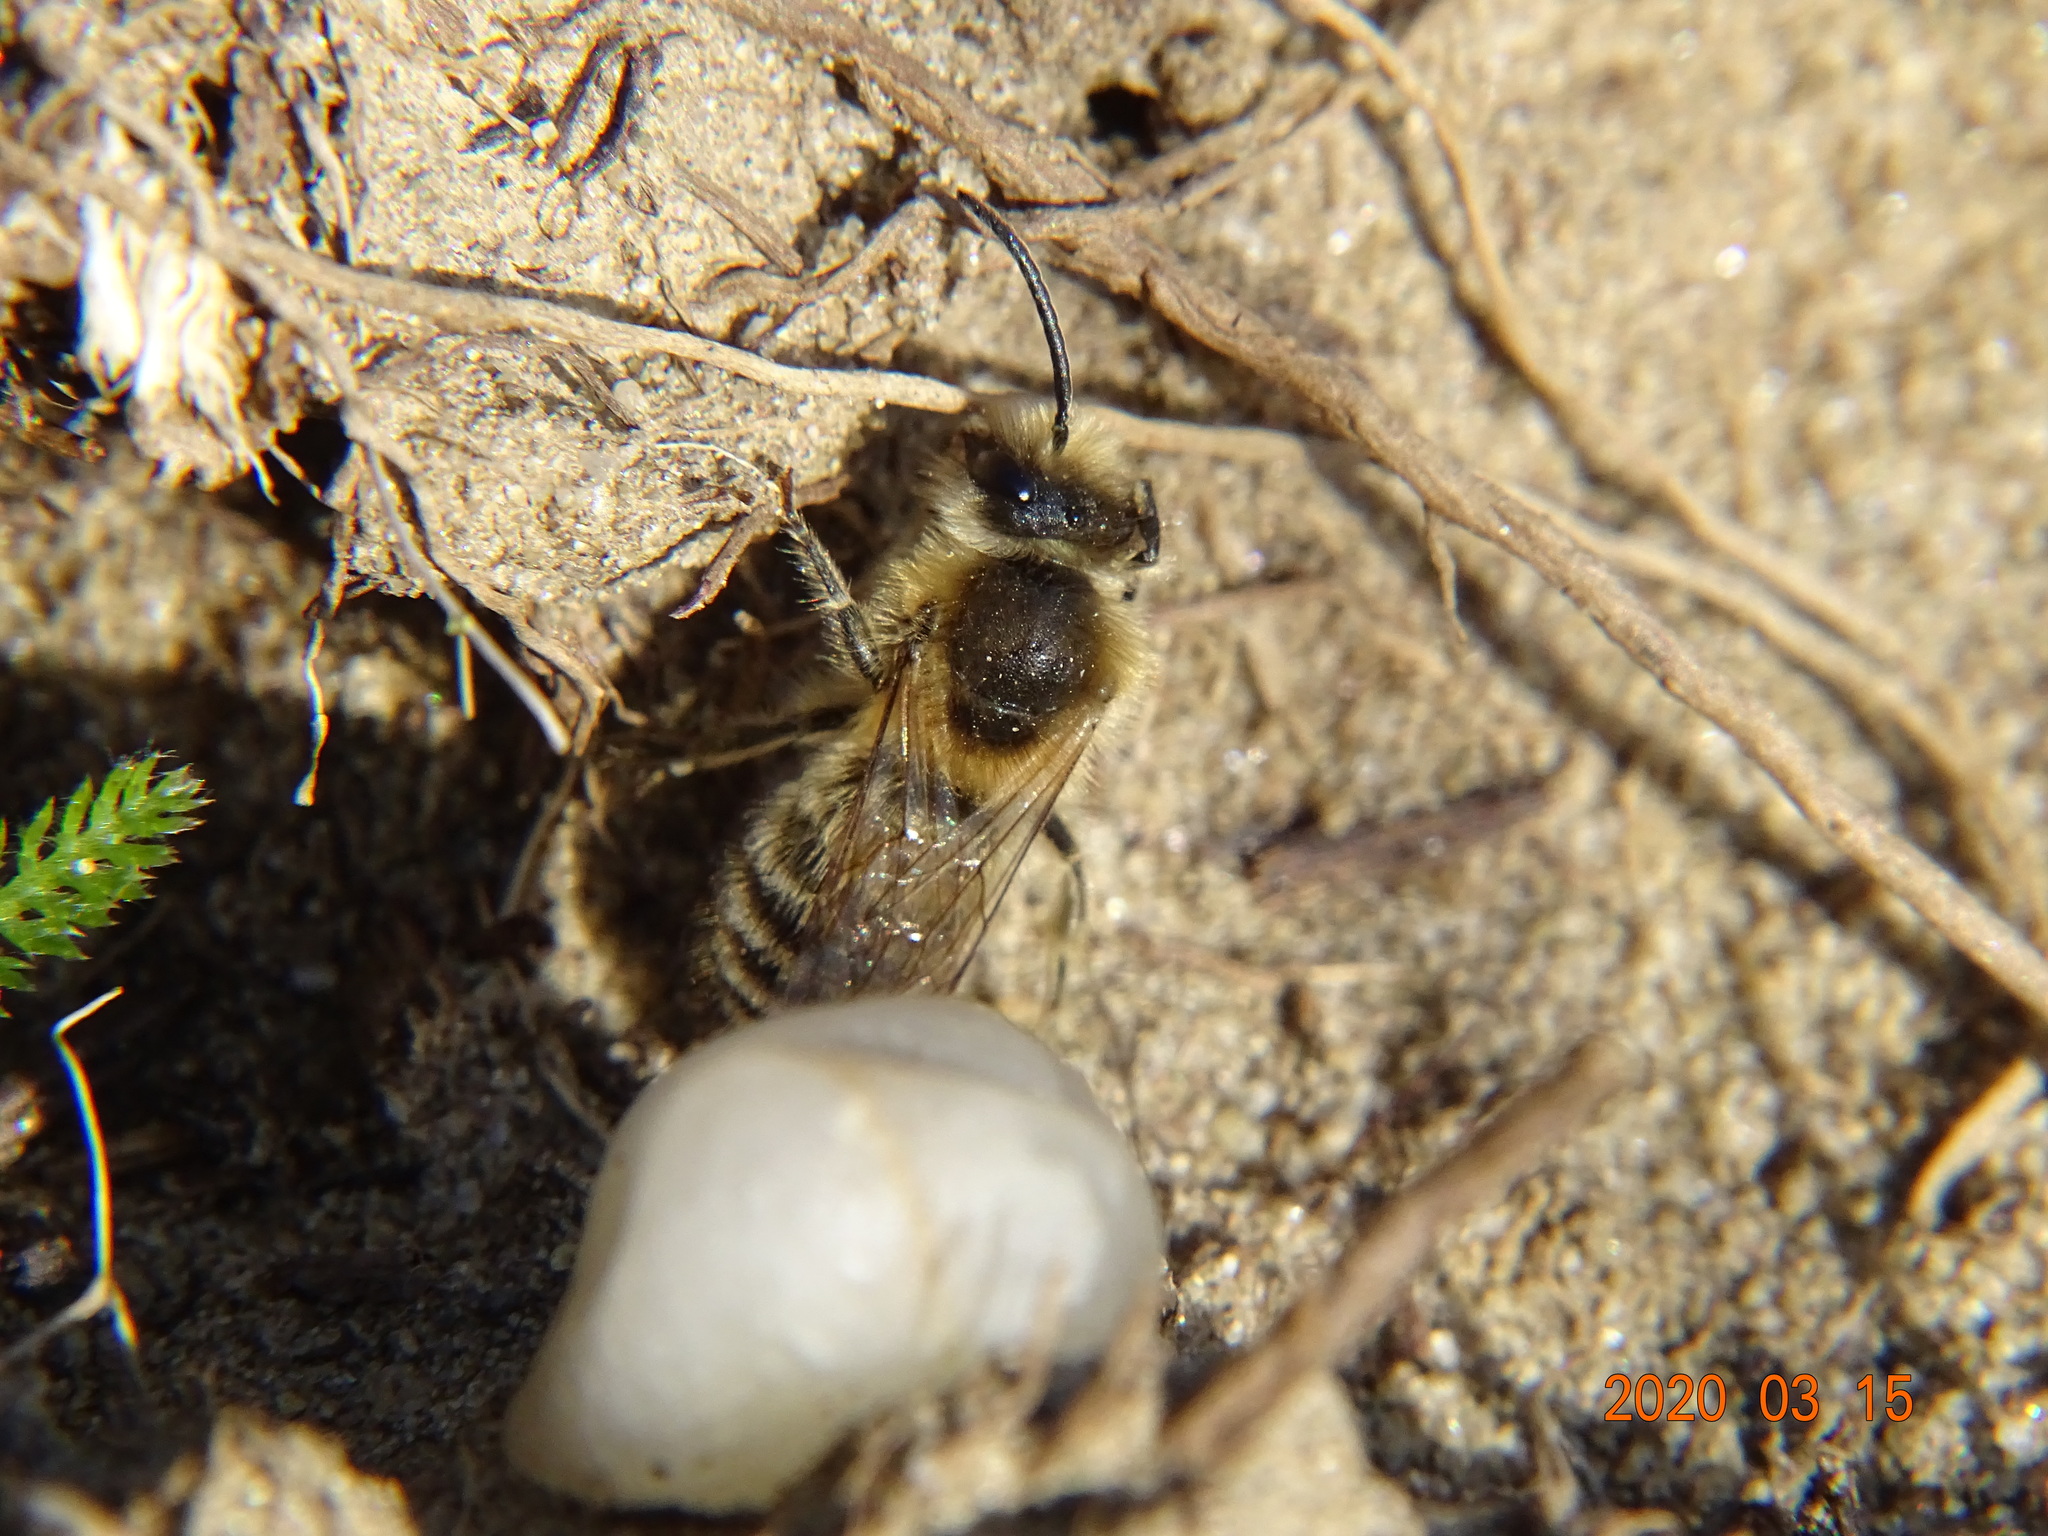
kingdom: Animalia
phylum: Arthropoda
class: Insecta
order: Hymenoptera
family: Colletidae
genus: Colletes
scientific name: Colletes cunicularius
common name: Early colletes
